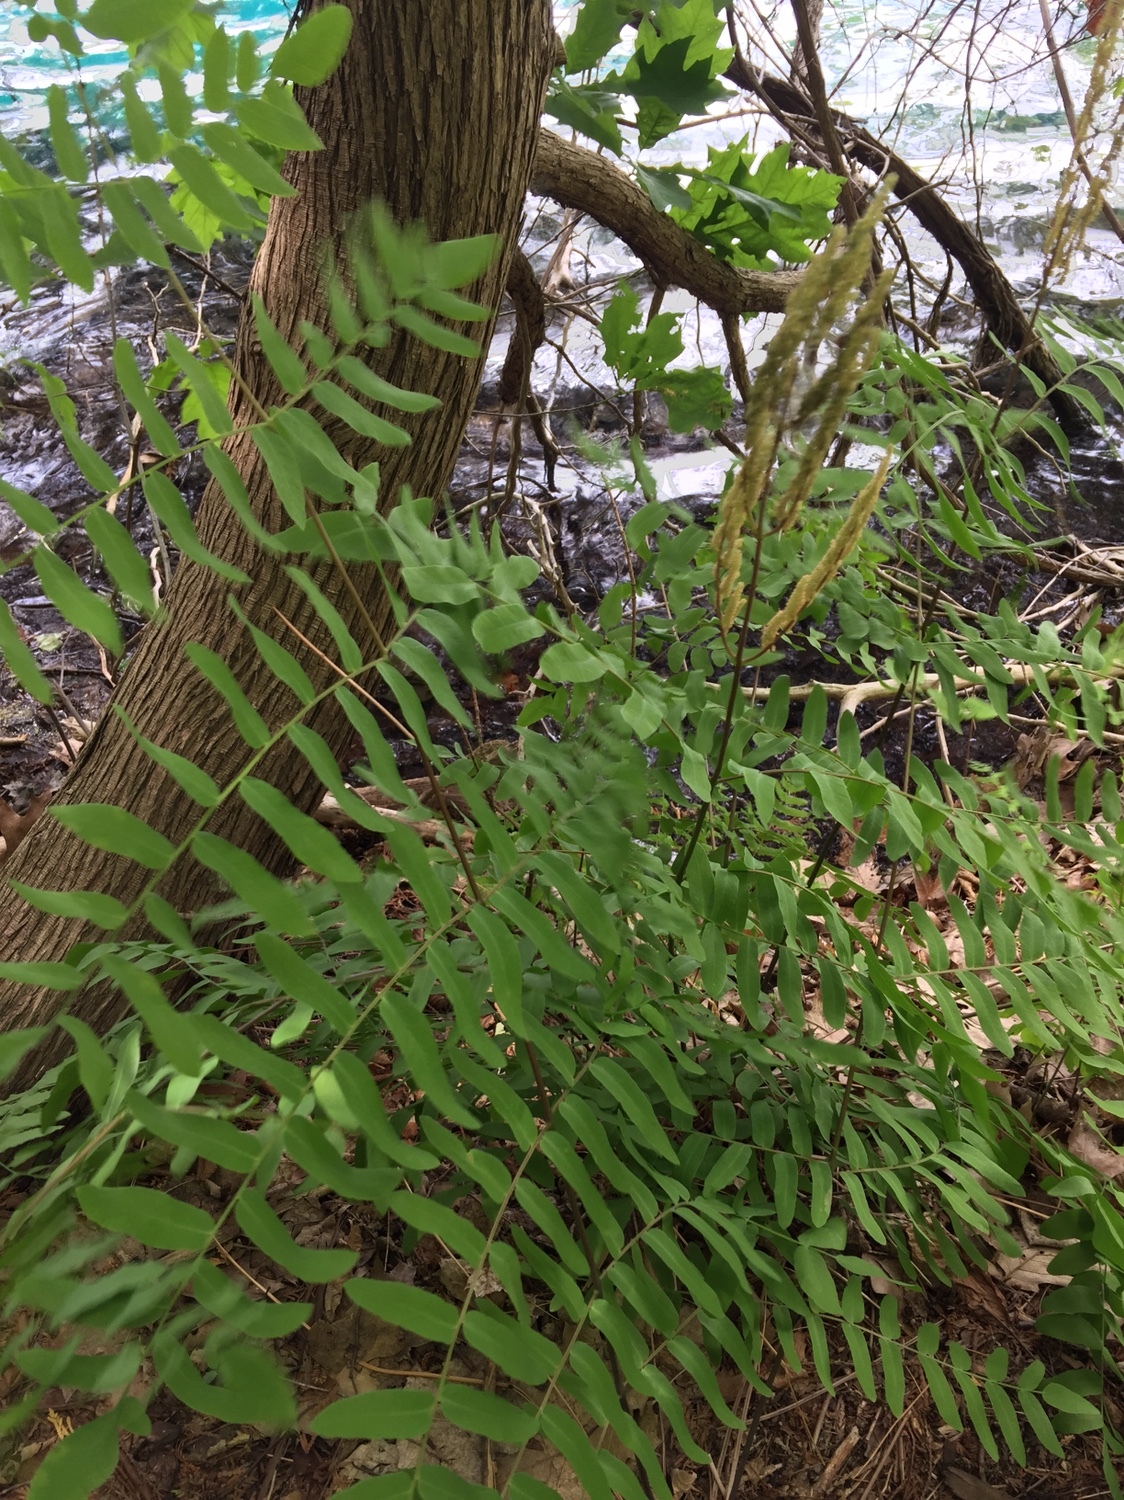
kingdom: Plantae
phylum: Tracheophyta
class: Polypodiopsida
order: Osmundales
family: Osmundaceae
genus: Osmunda
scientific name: Osmunda spectabilis
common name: American royal fern
